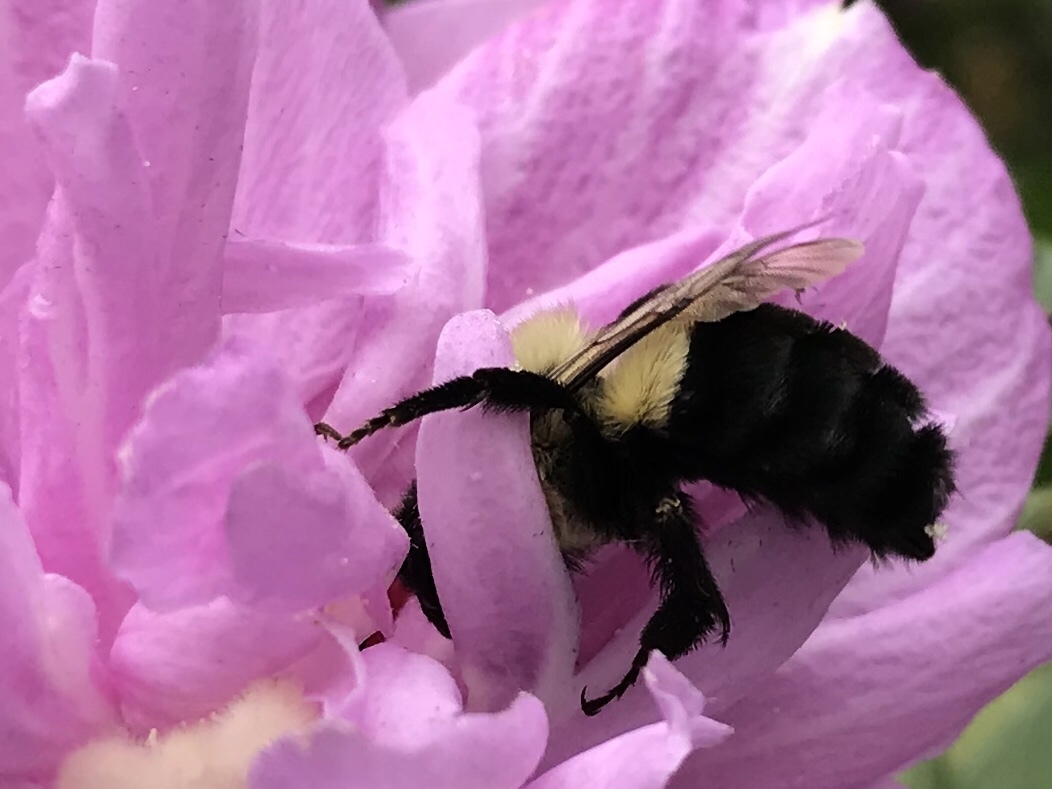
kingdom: Animalia
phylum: Arthropoda
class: Insecta
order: Hymenoptera
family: Apidae
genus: Bombus
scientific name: Bombus impatiens
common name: Common eastern bumble bee
